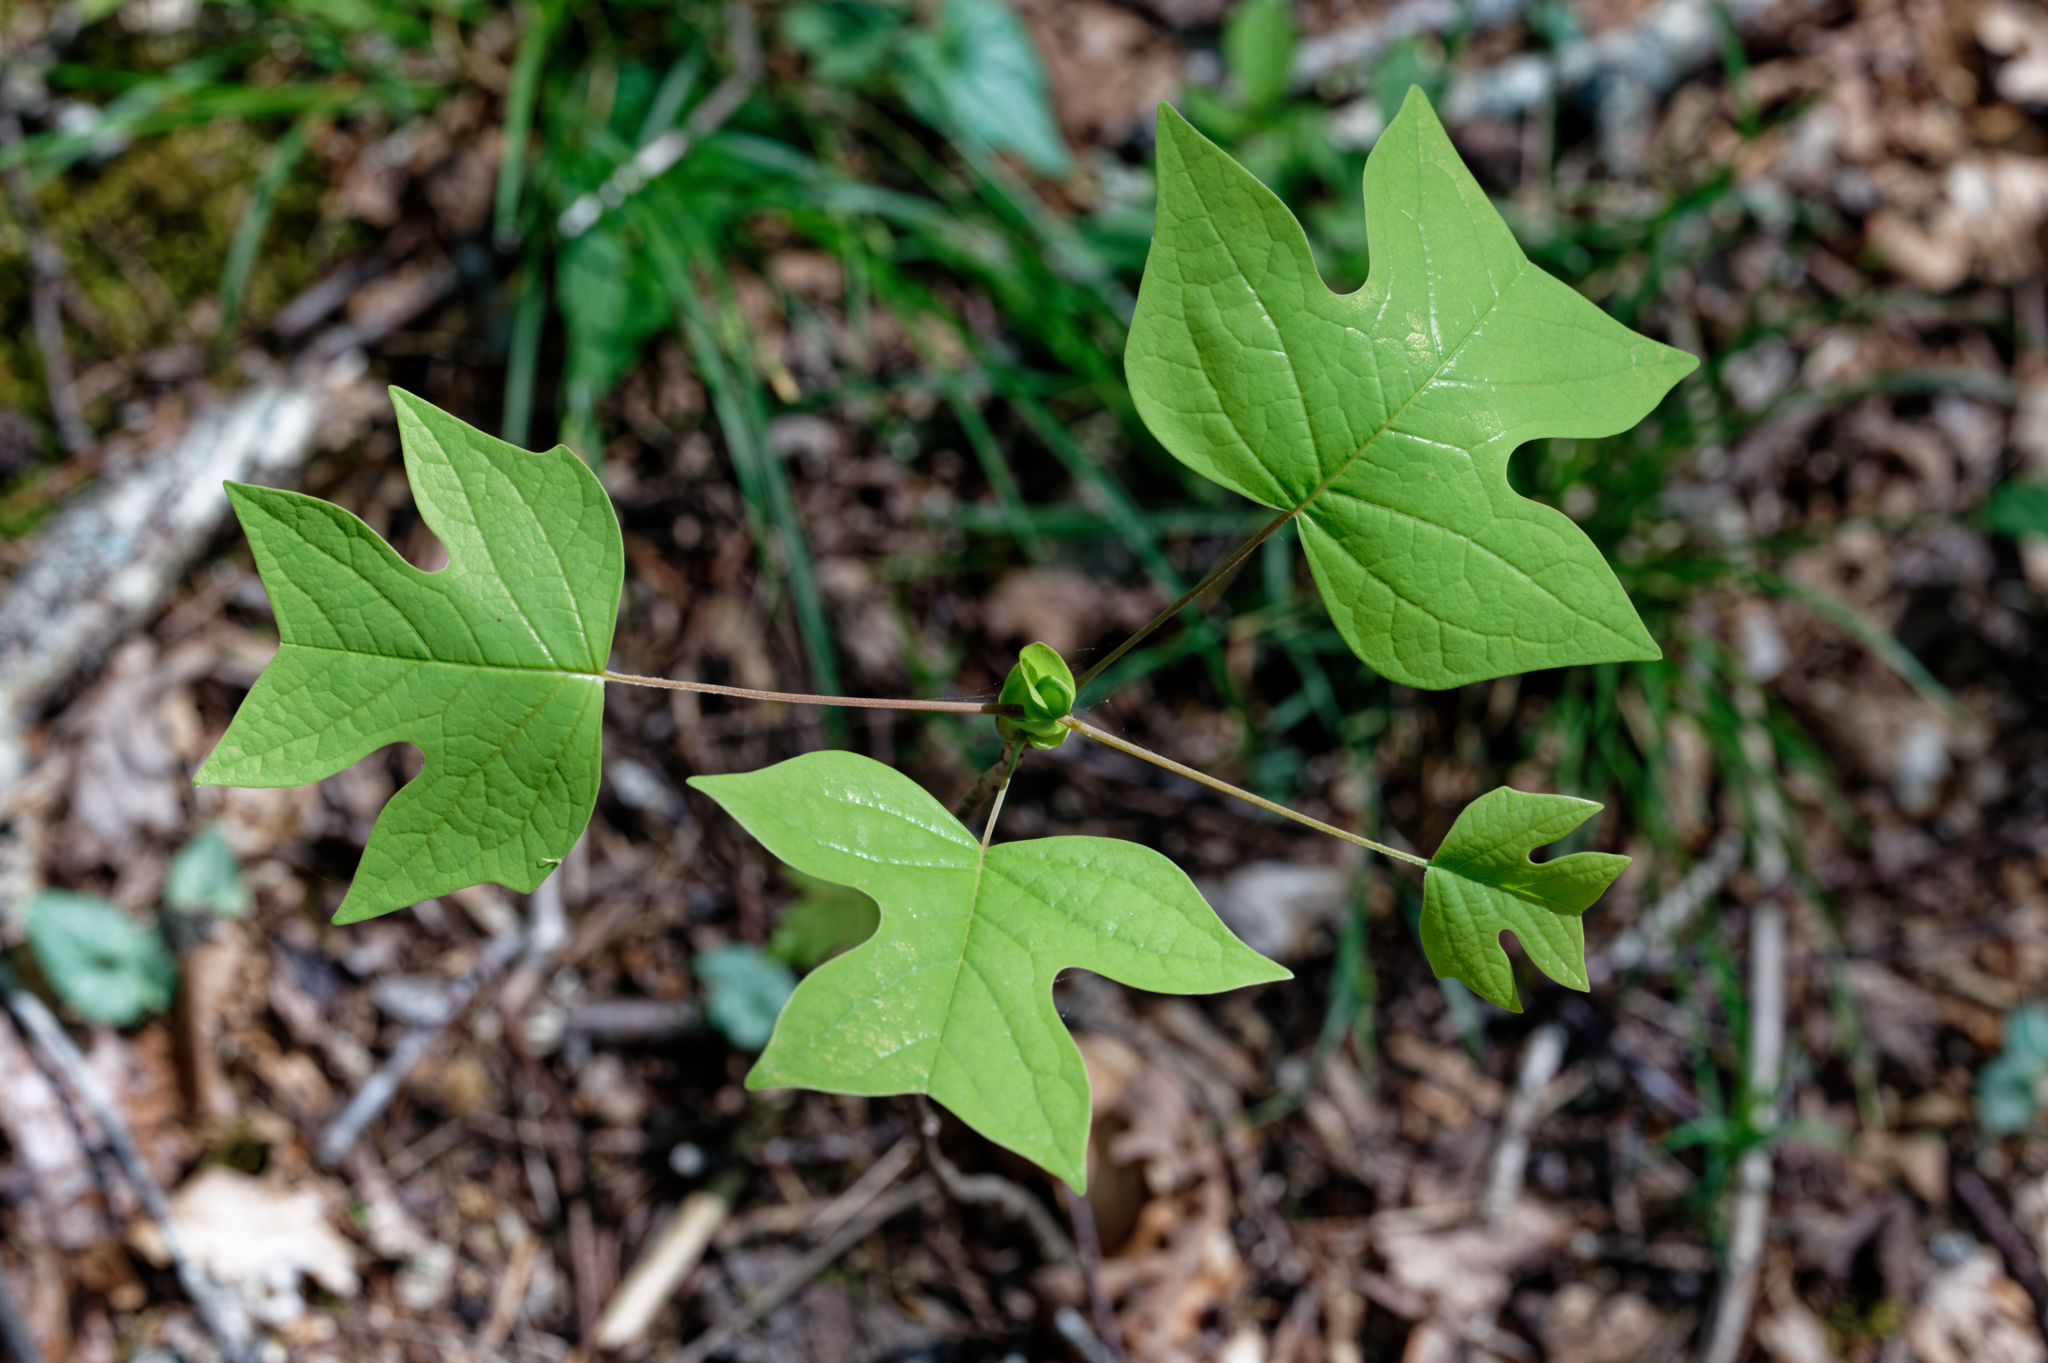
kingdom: Plantae
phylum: Tracheophyta
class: Magnoliopsida
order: Magnoliales
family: Magnoliaceae
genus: Liriodendron
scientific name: Liriodendron tulipifera
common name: Tulip tree
